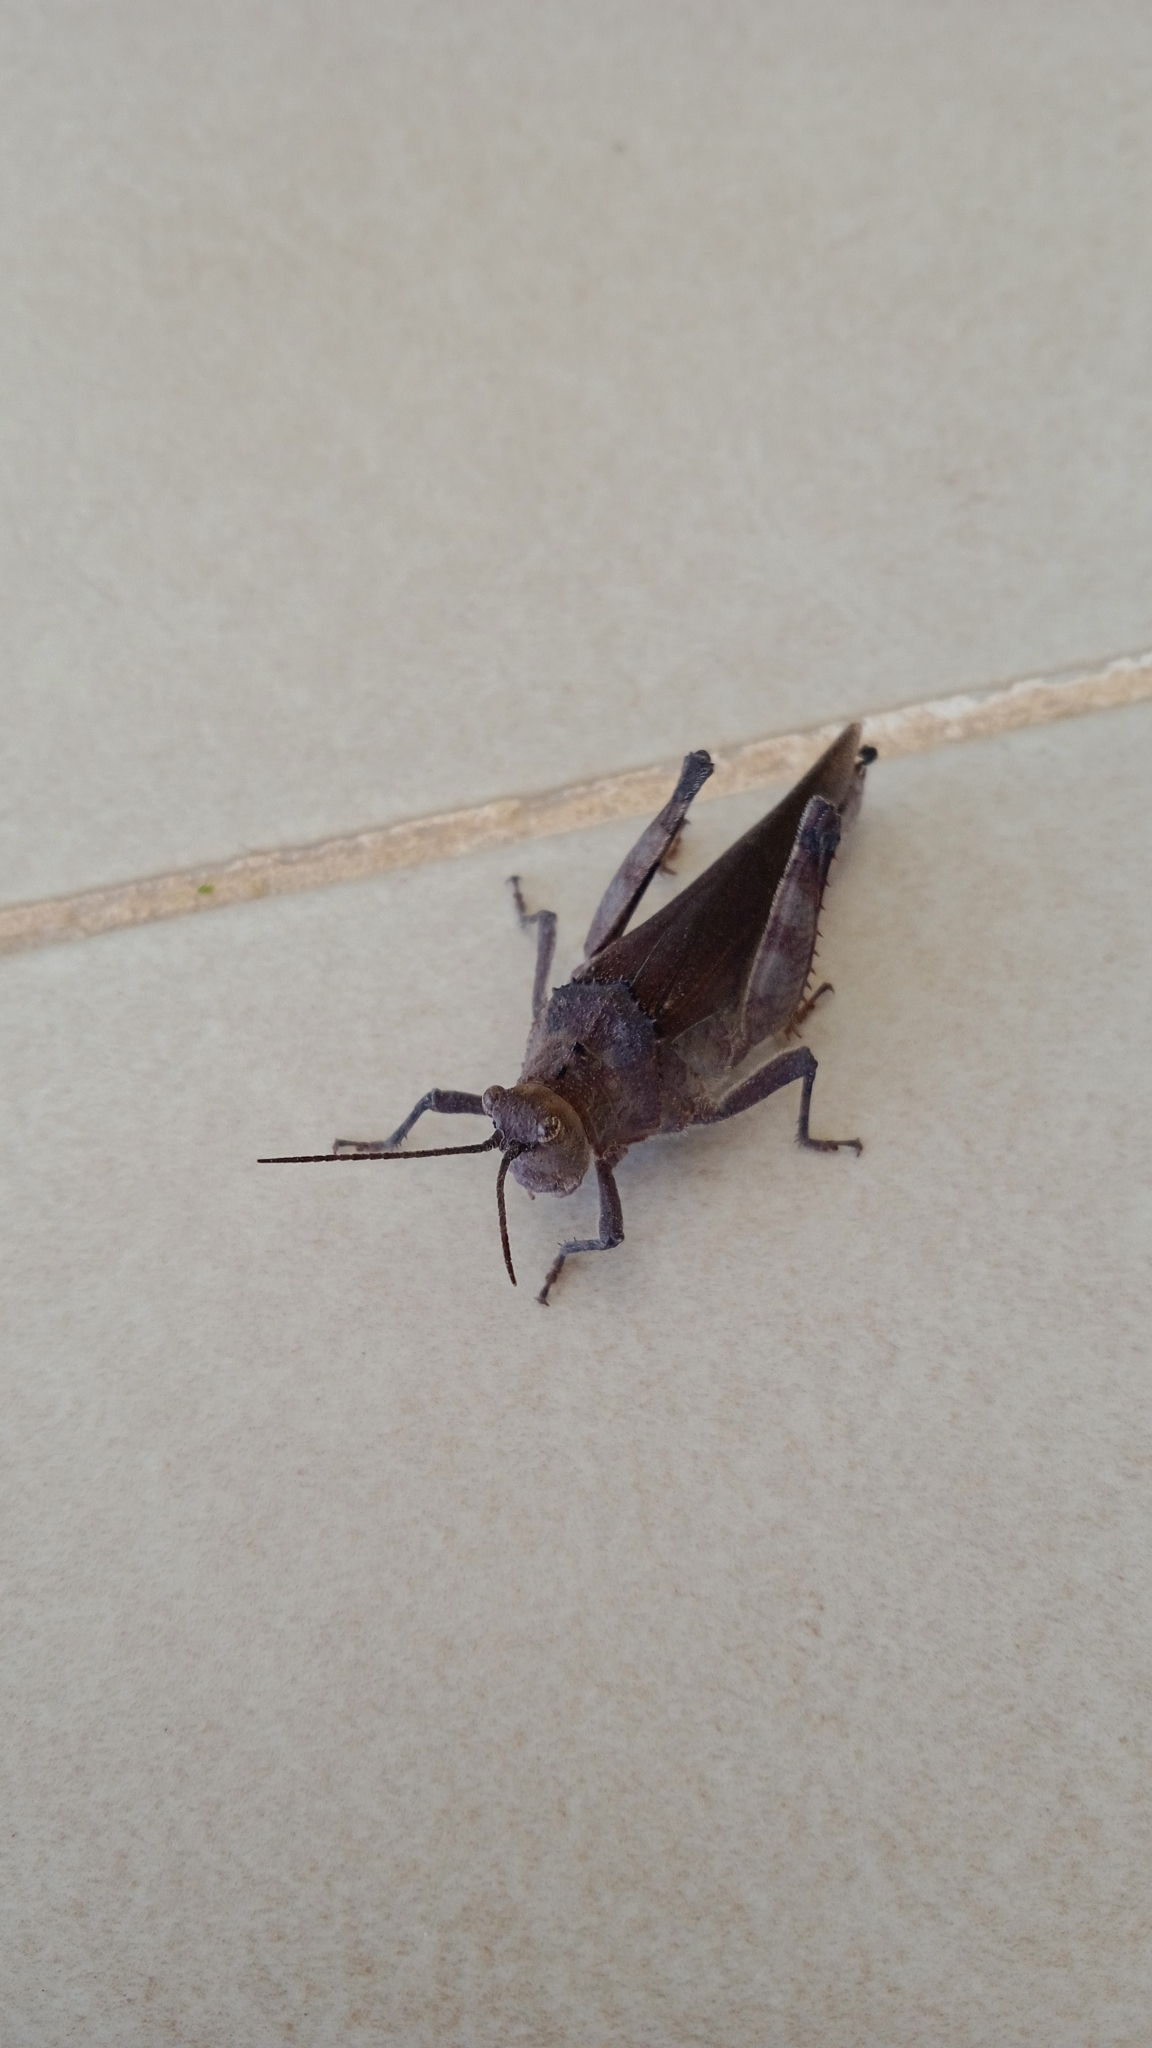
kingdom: Animalia
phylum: Arthropoda
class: Insecta
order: Orthoptera
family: Ommexechidae
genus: Descampsacris
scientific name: Descampsacris serrulata
